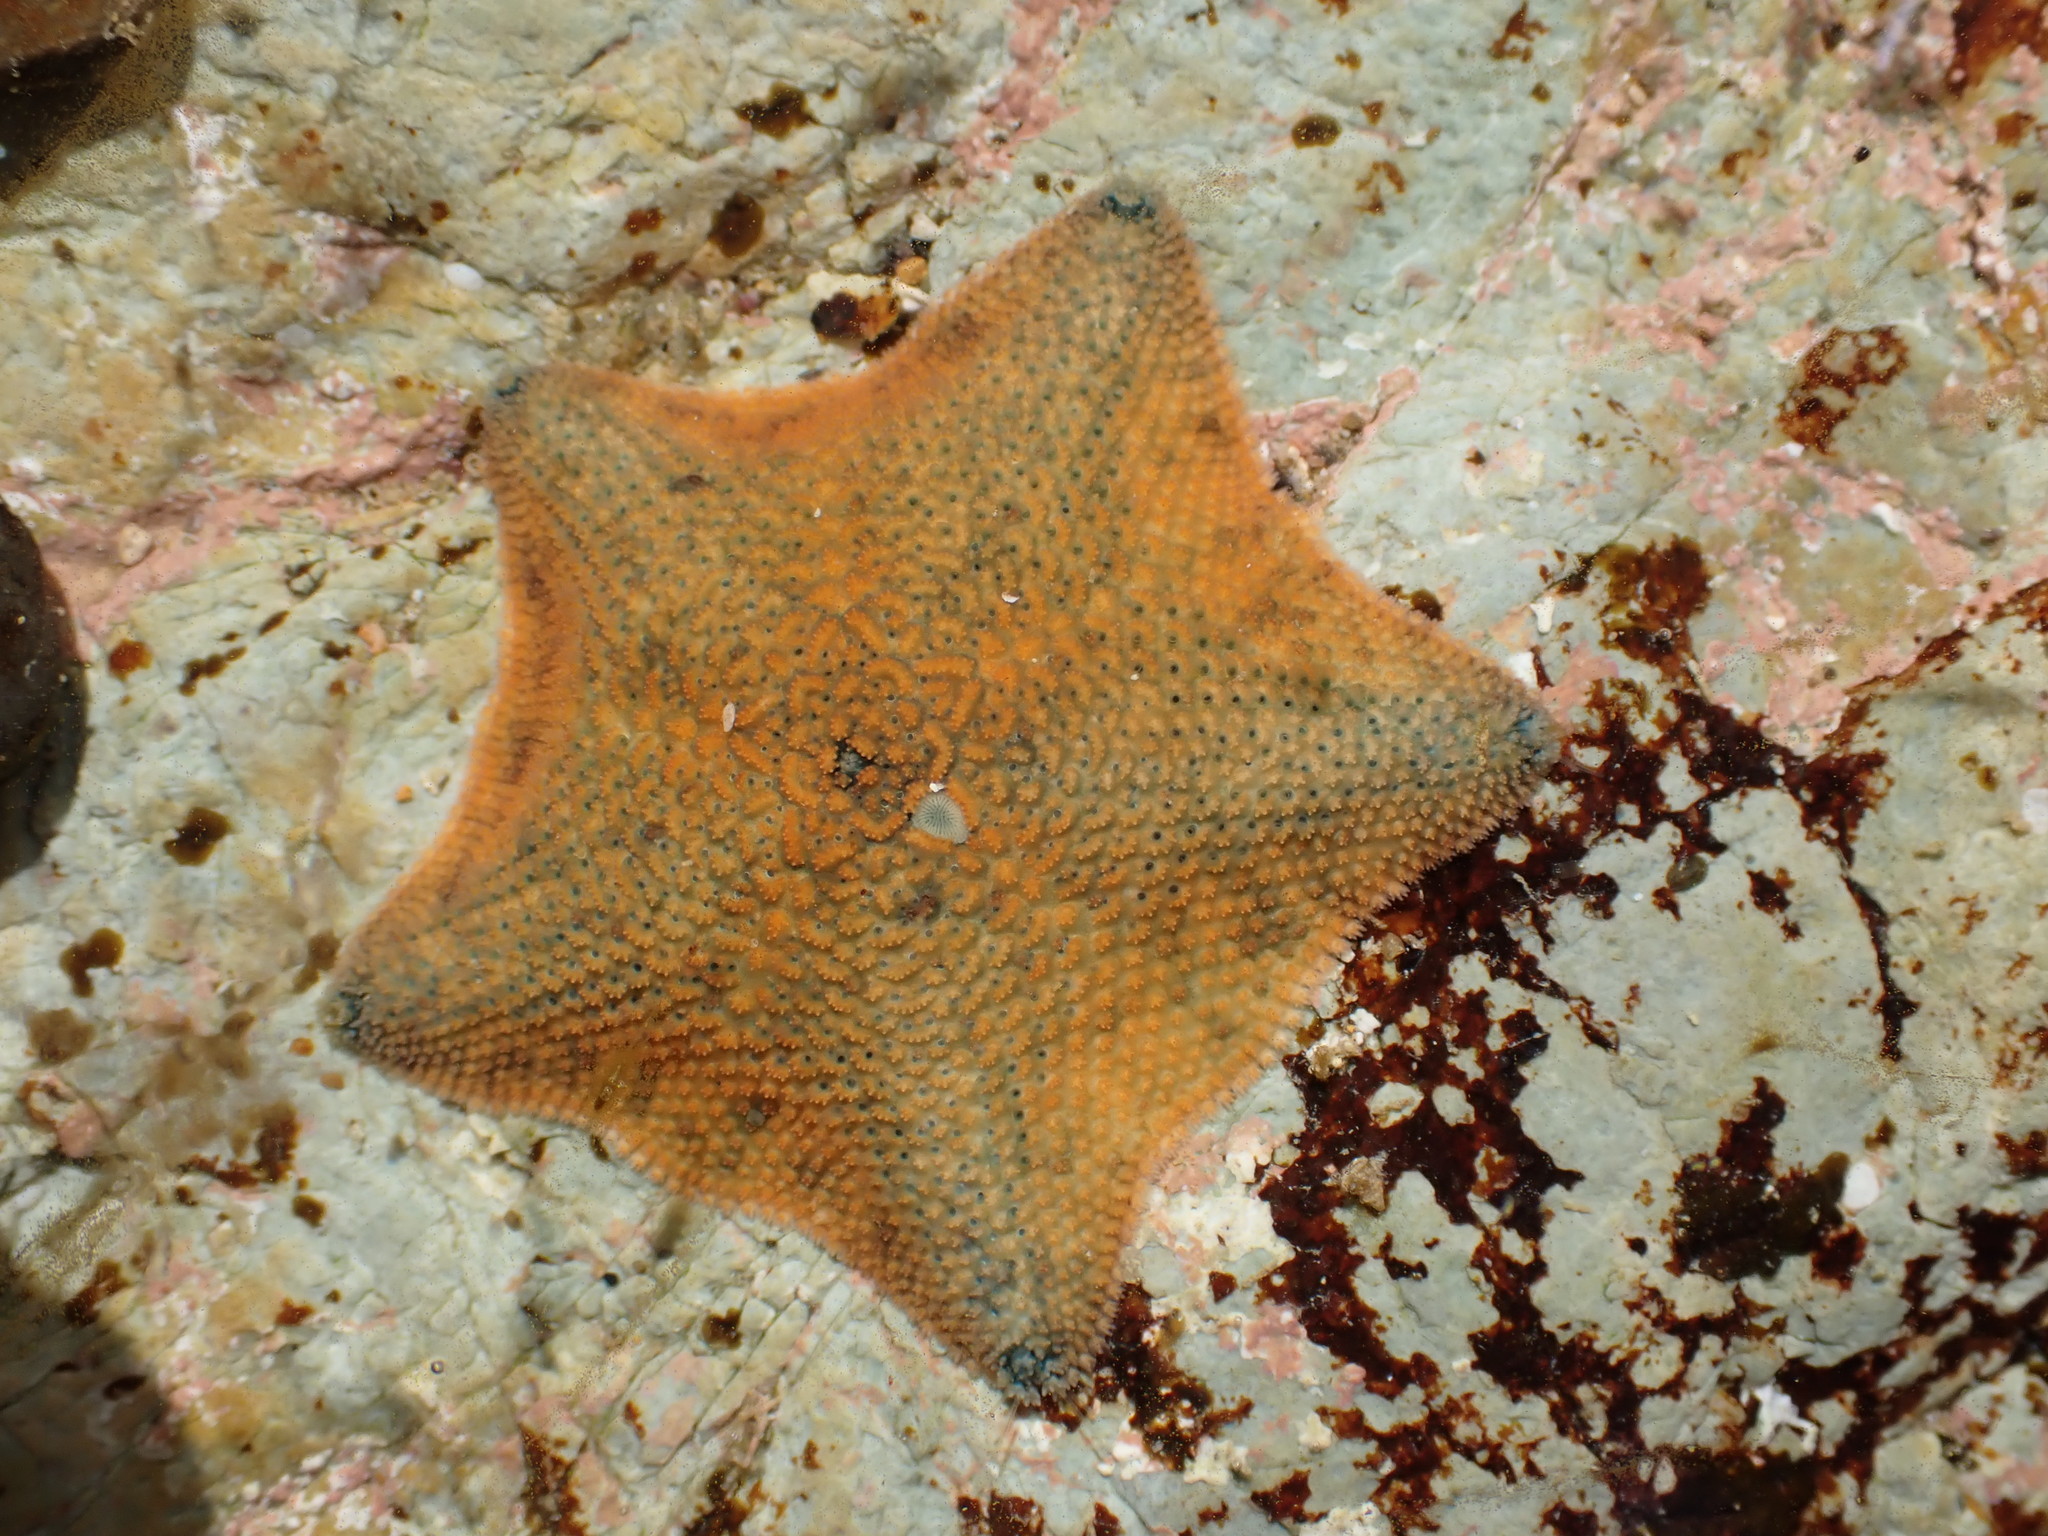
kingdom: Animalia
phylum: Echinodermata
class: Asteroidea
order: Valvatida
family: Asterinidae
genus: Patiriella
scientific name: Patiriella regularis
